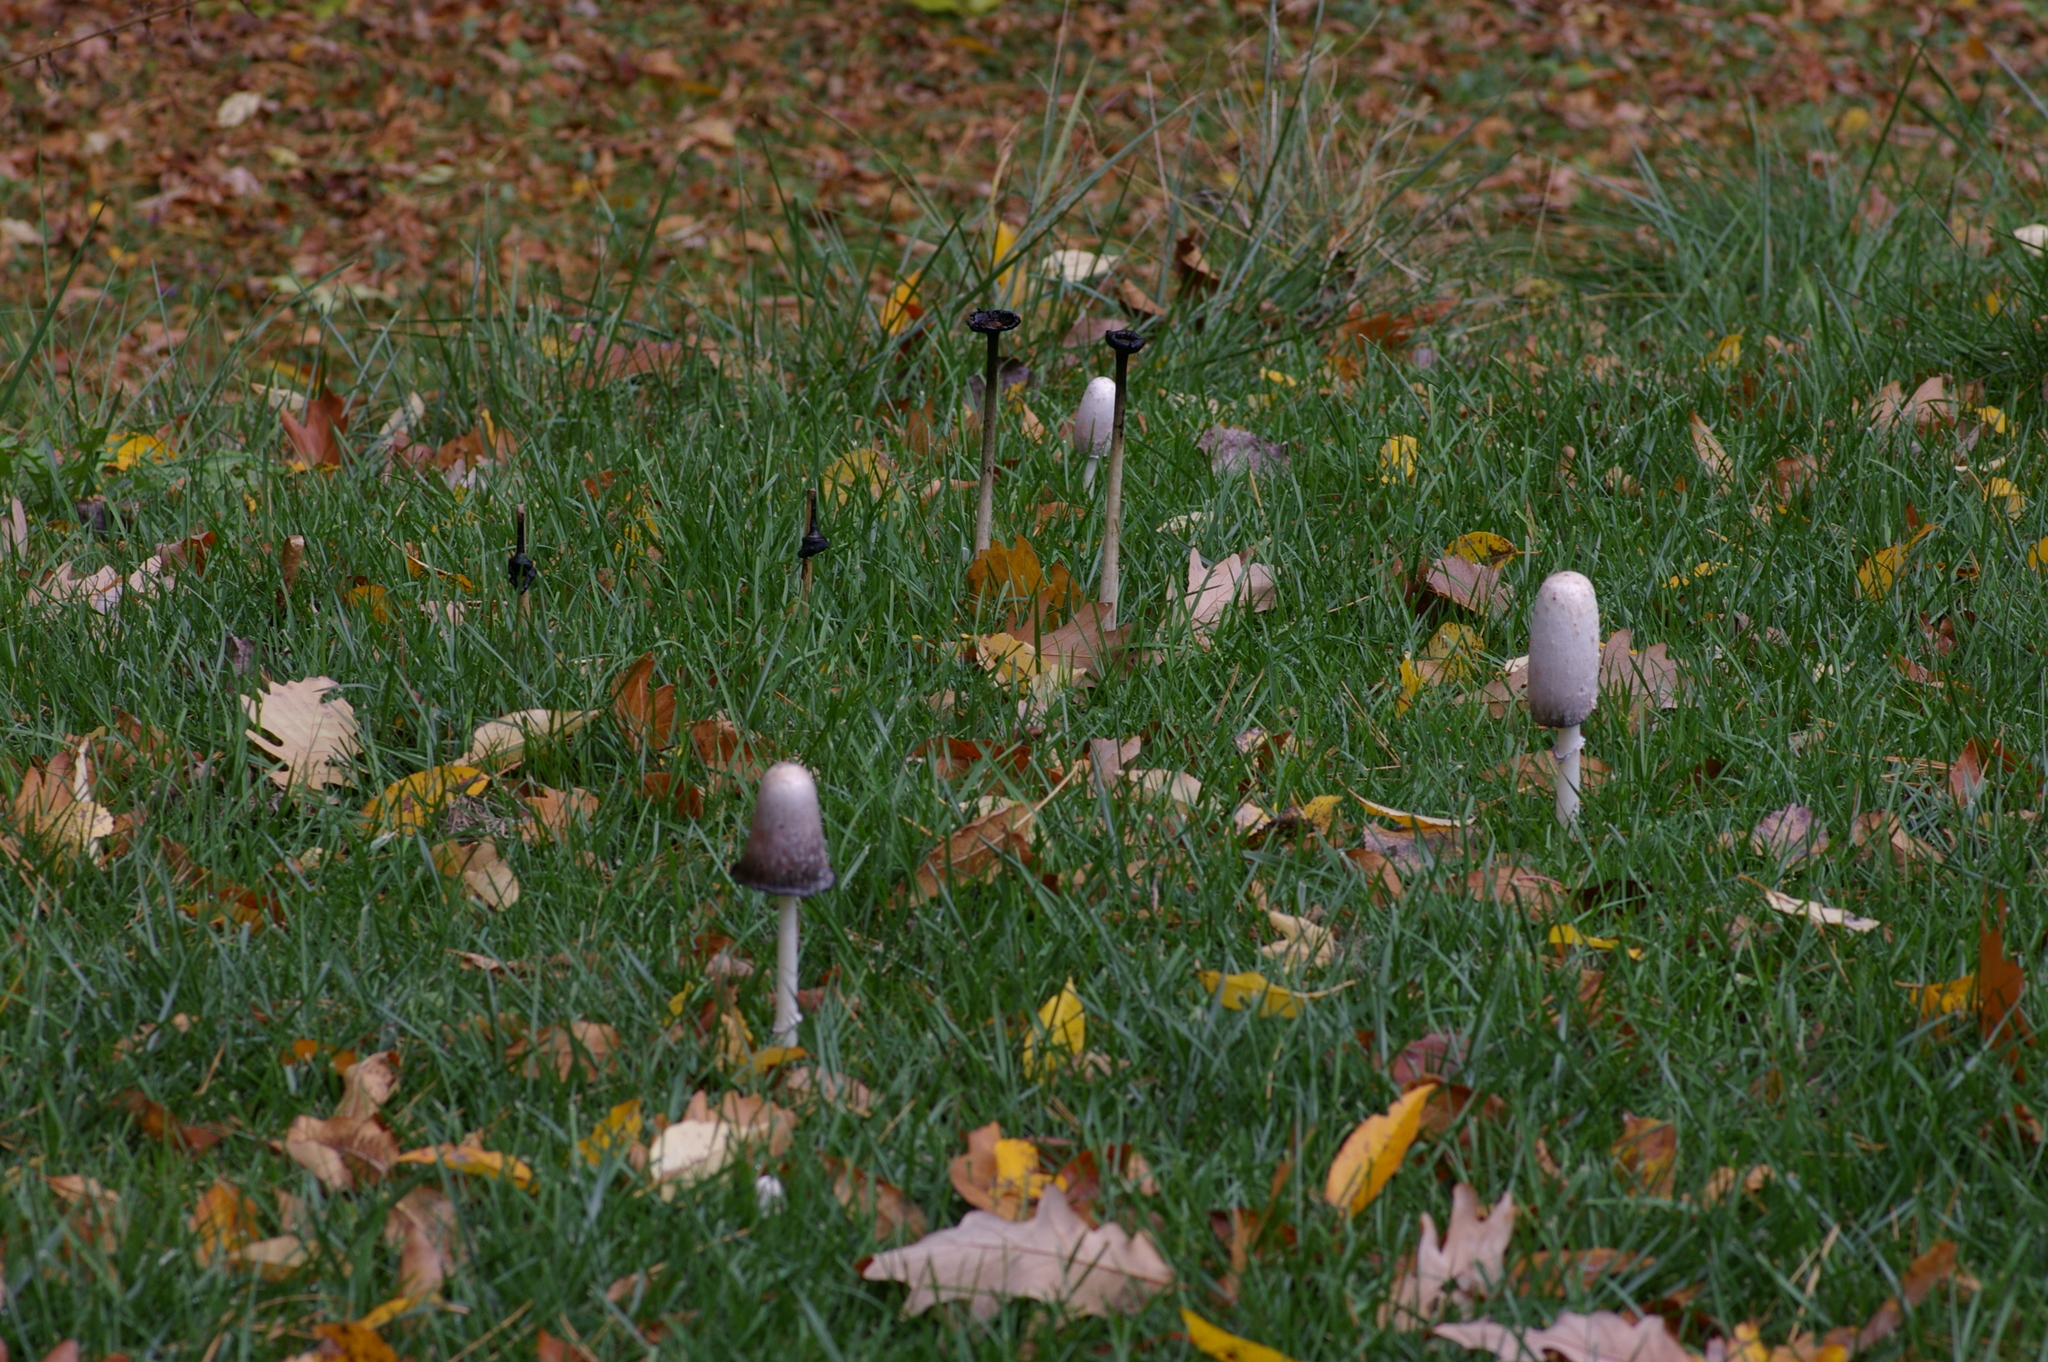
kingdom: Fungi
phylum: Basidiomycota
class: Agaricomycetes
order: Agaricales
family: Agaricaceae
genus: Coprinus
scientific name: Coprinus comatus
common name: Lawyer's wig
